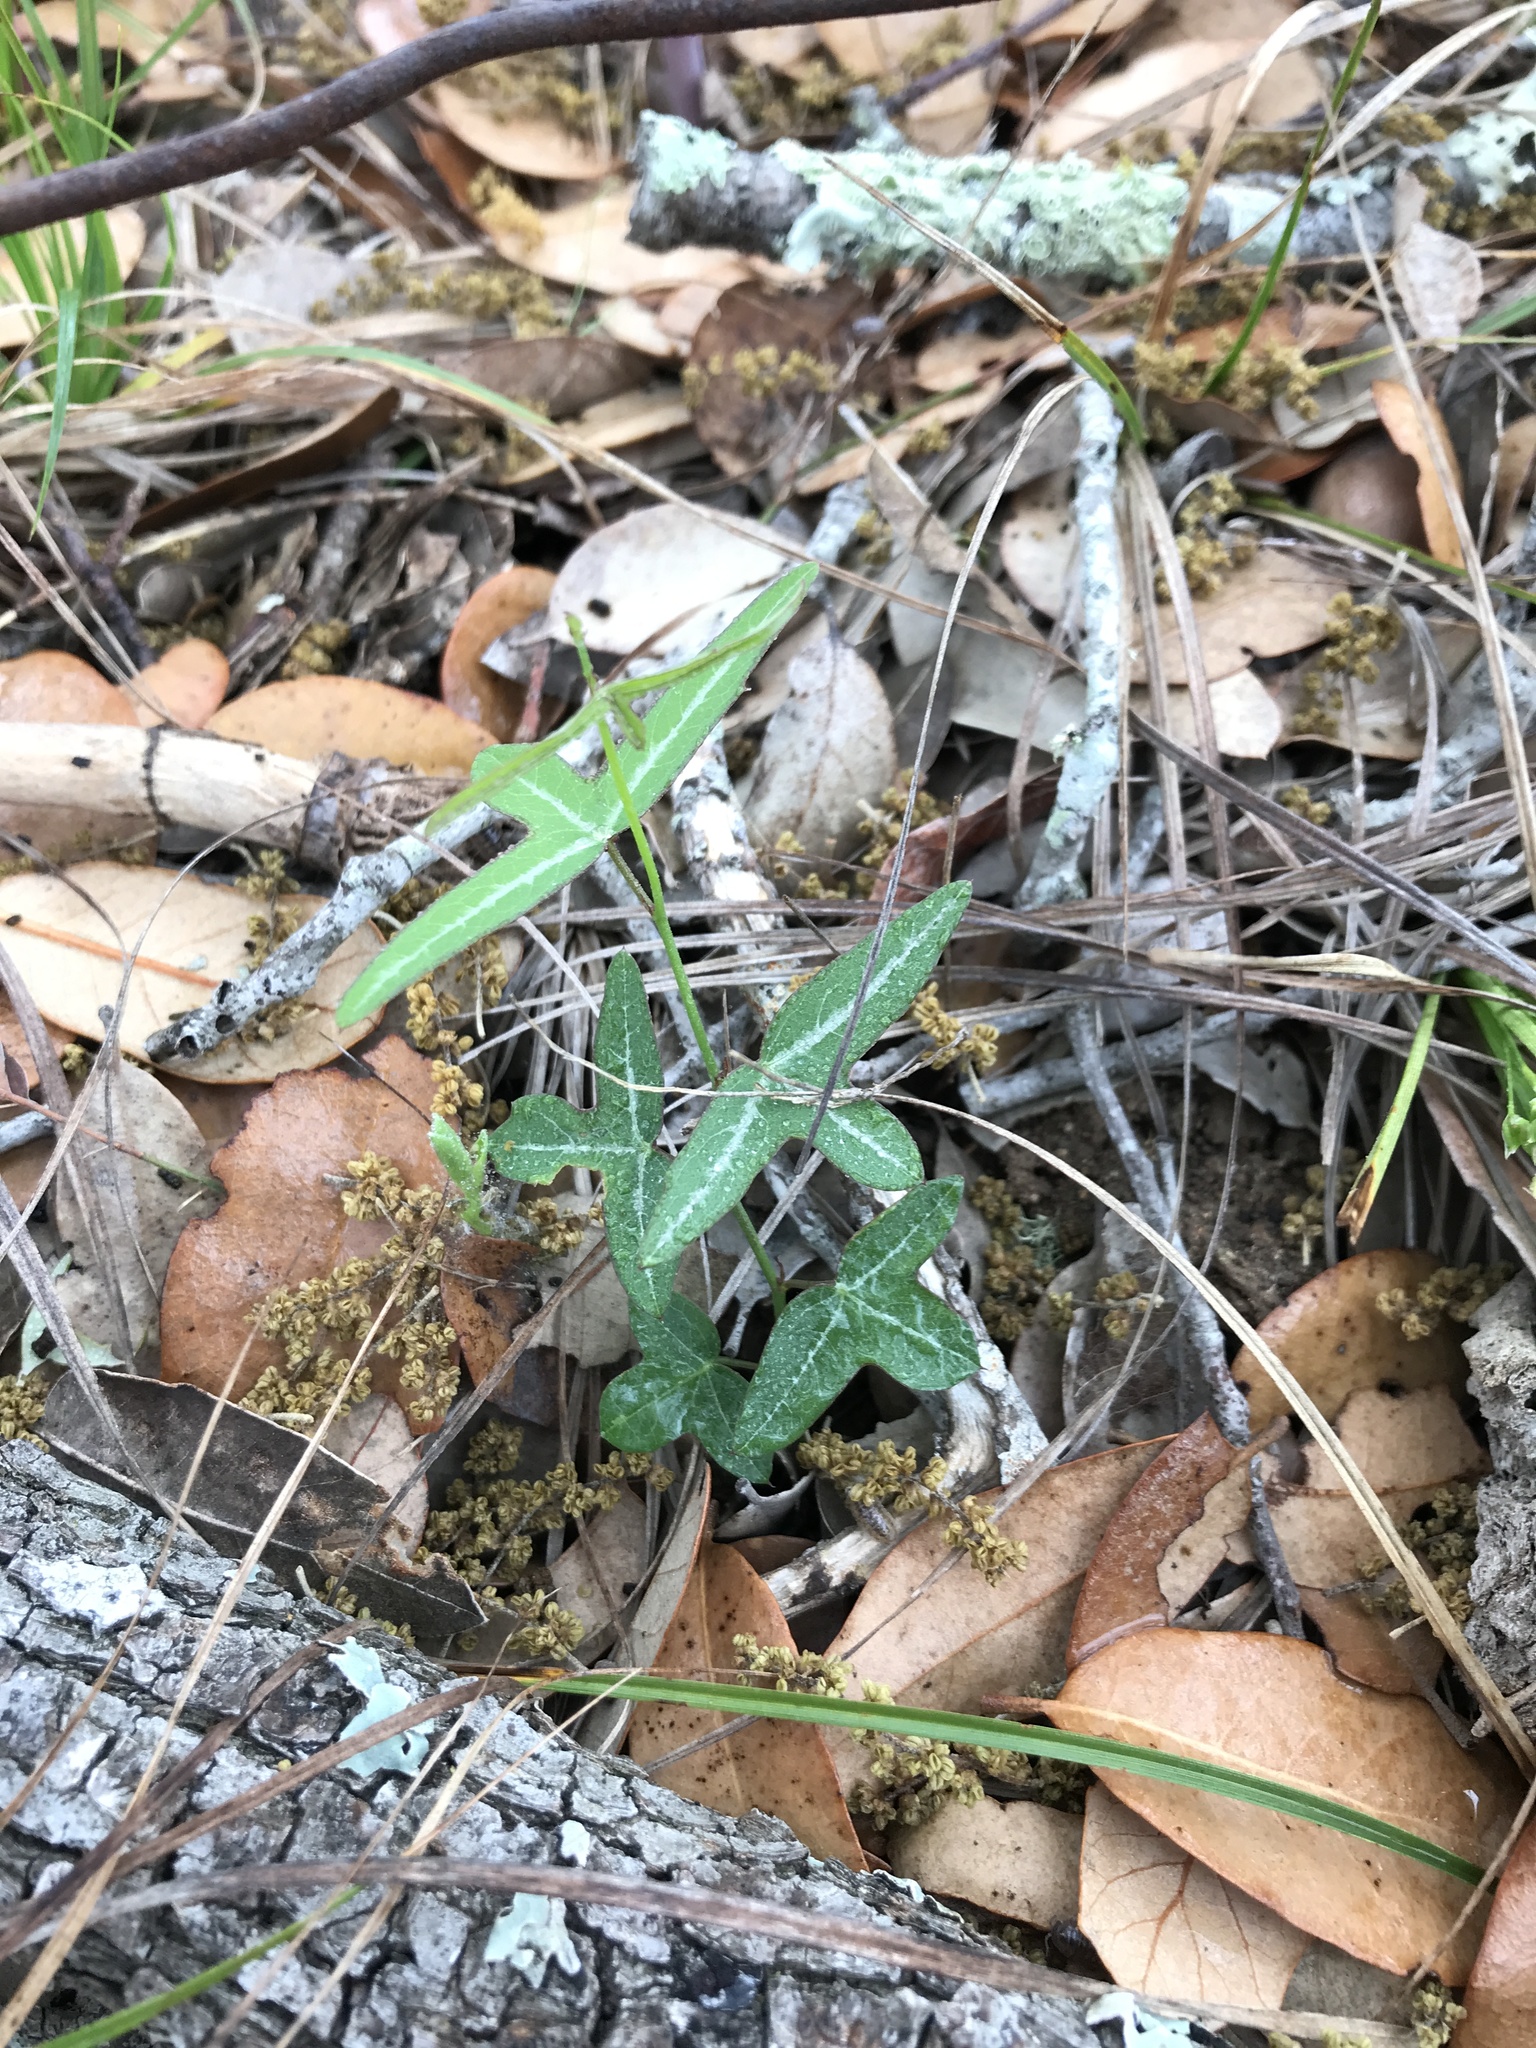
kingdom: Plantae
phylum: Tracheophyta
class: Magnoliopsida
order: Malpighiales
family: Passifloraceae
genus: Passiflora
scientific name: Passiflora tenuiloba
